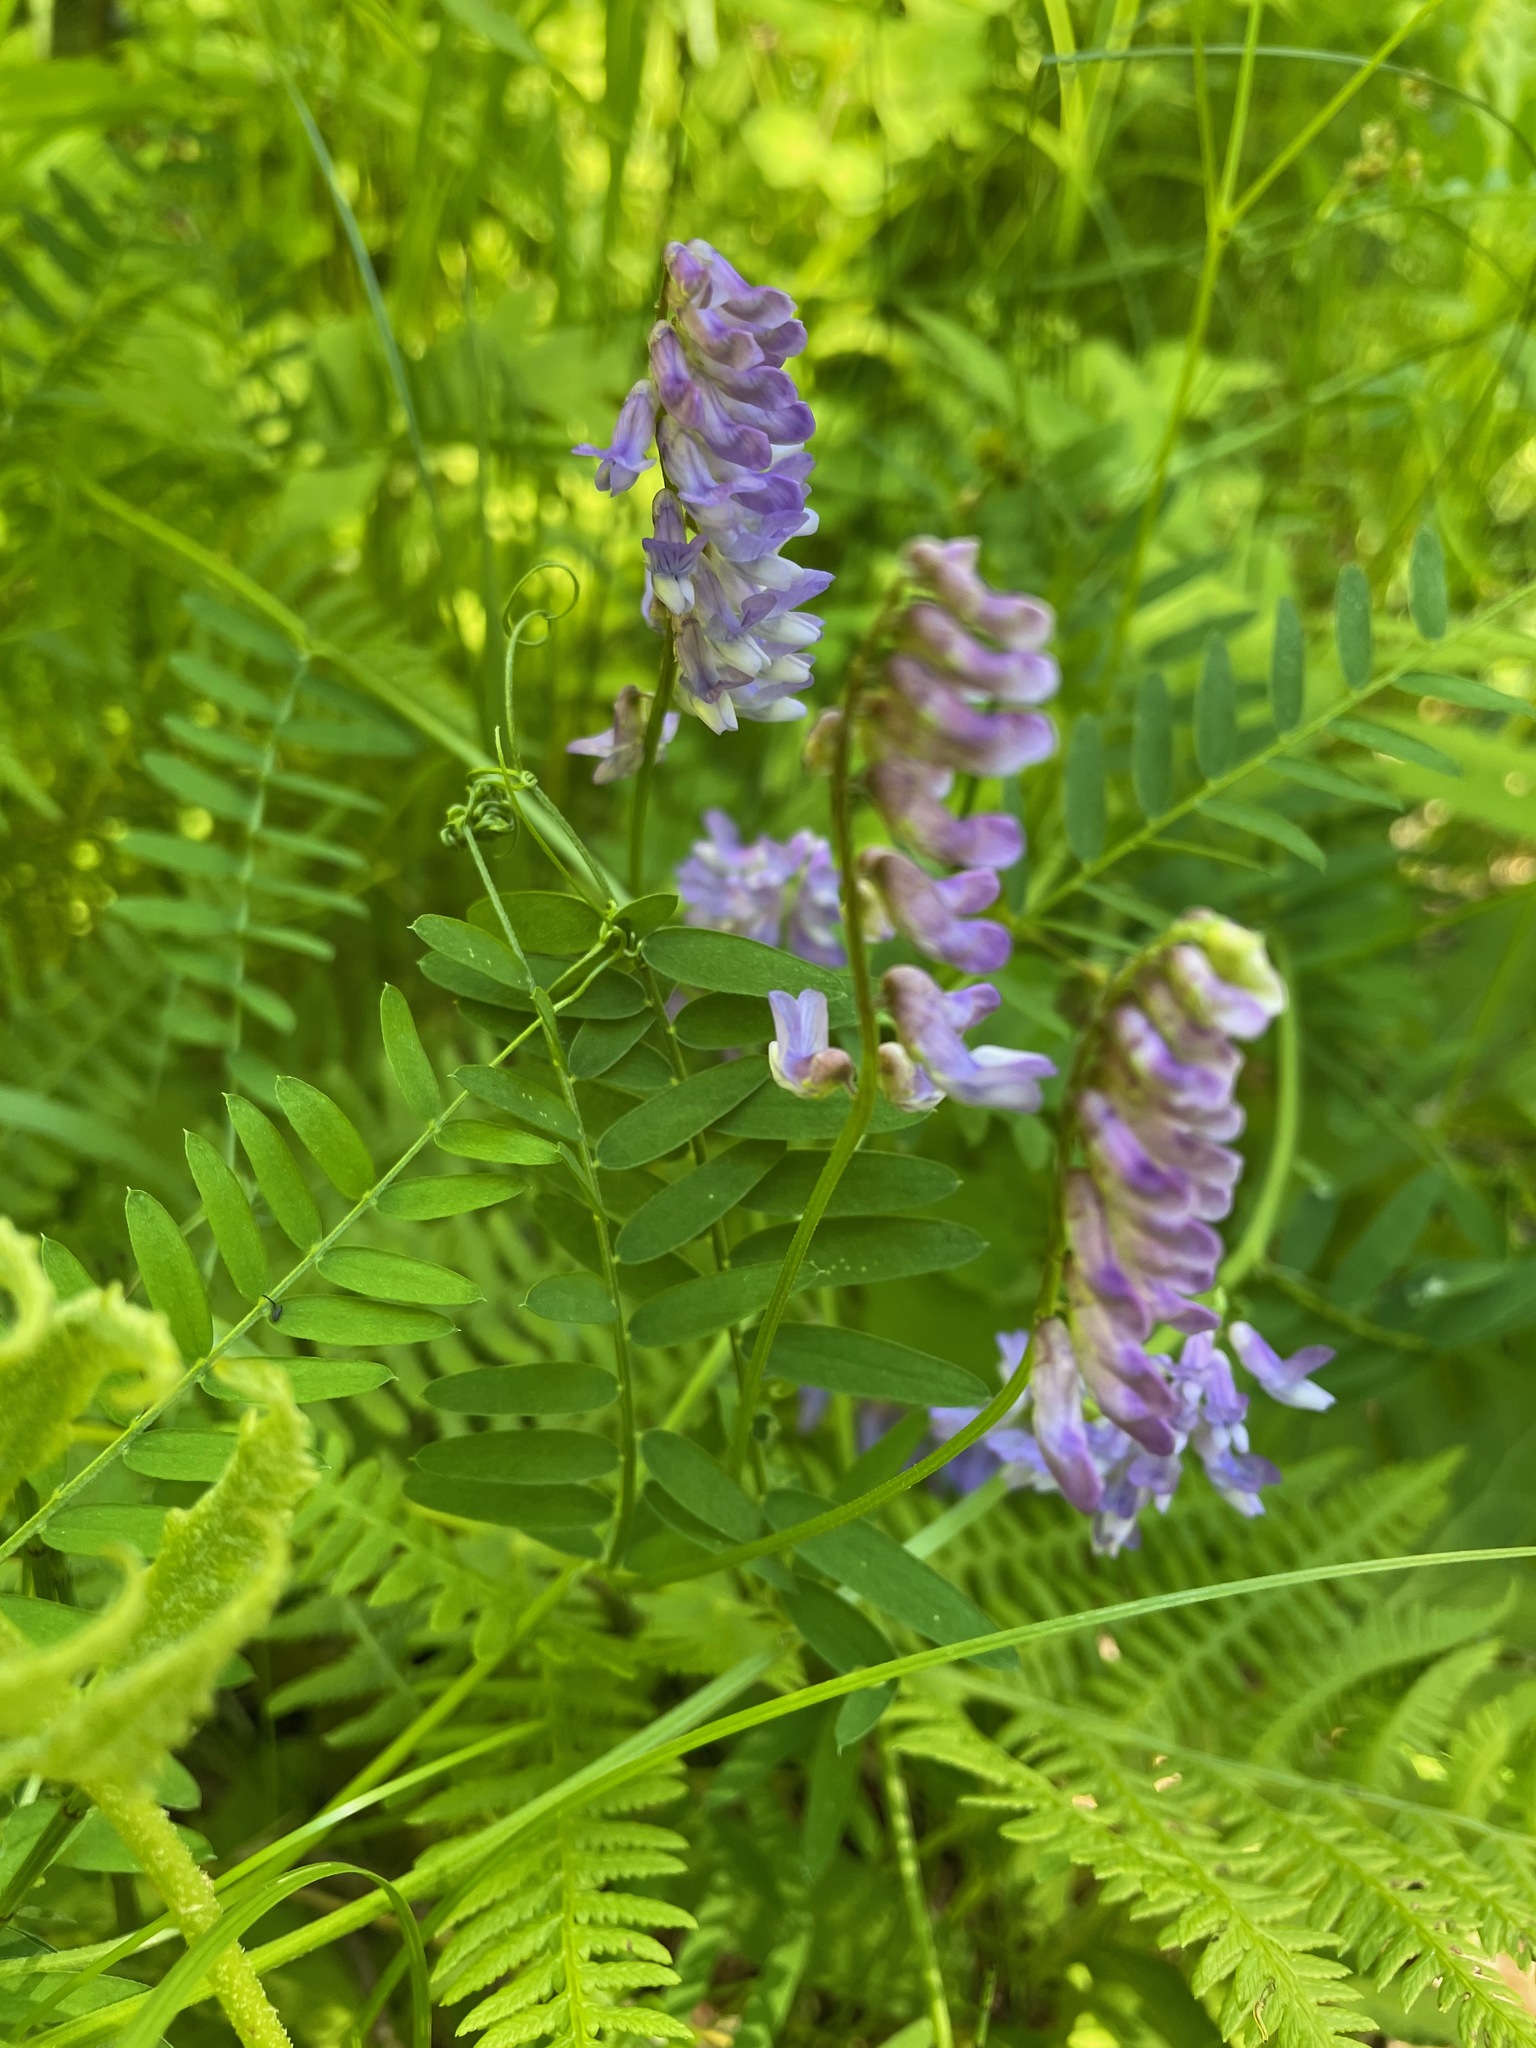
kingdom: Plantae
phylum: Tracheophyta
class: Magnoliopsida
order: Fabales
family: Fabaceae
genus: Vicia
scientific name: Vicia cracca
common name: Bird vetch
